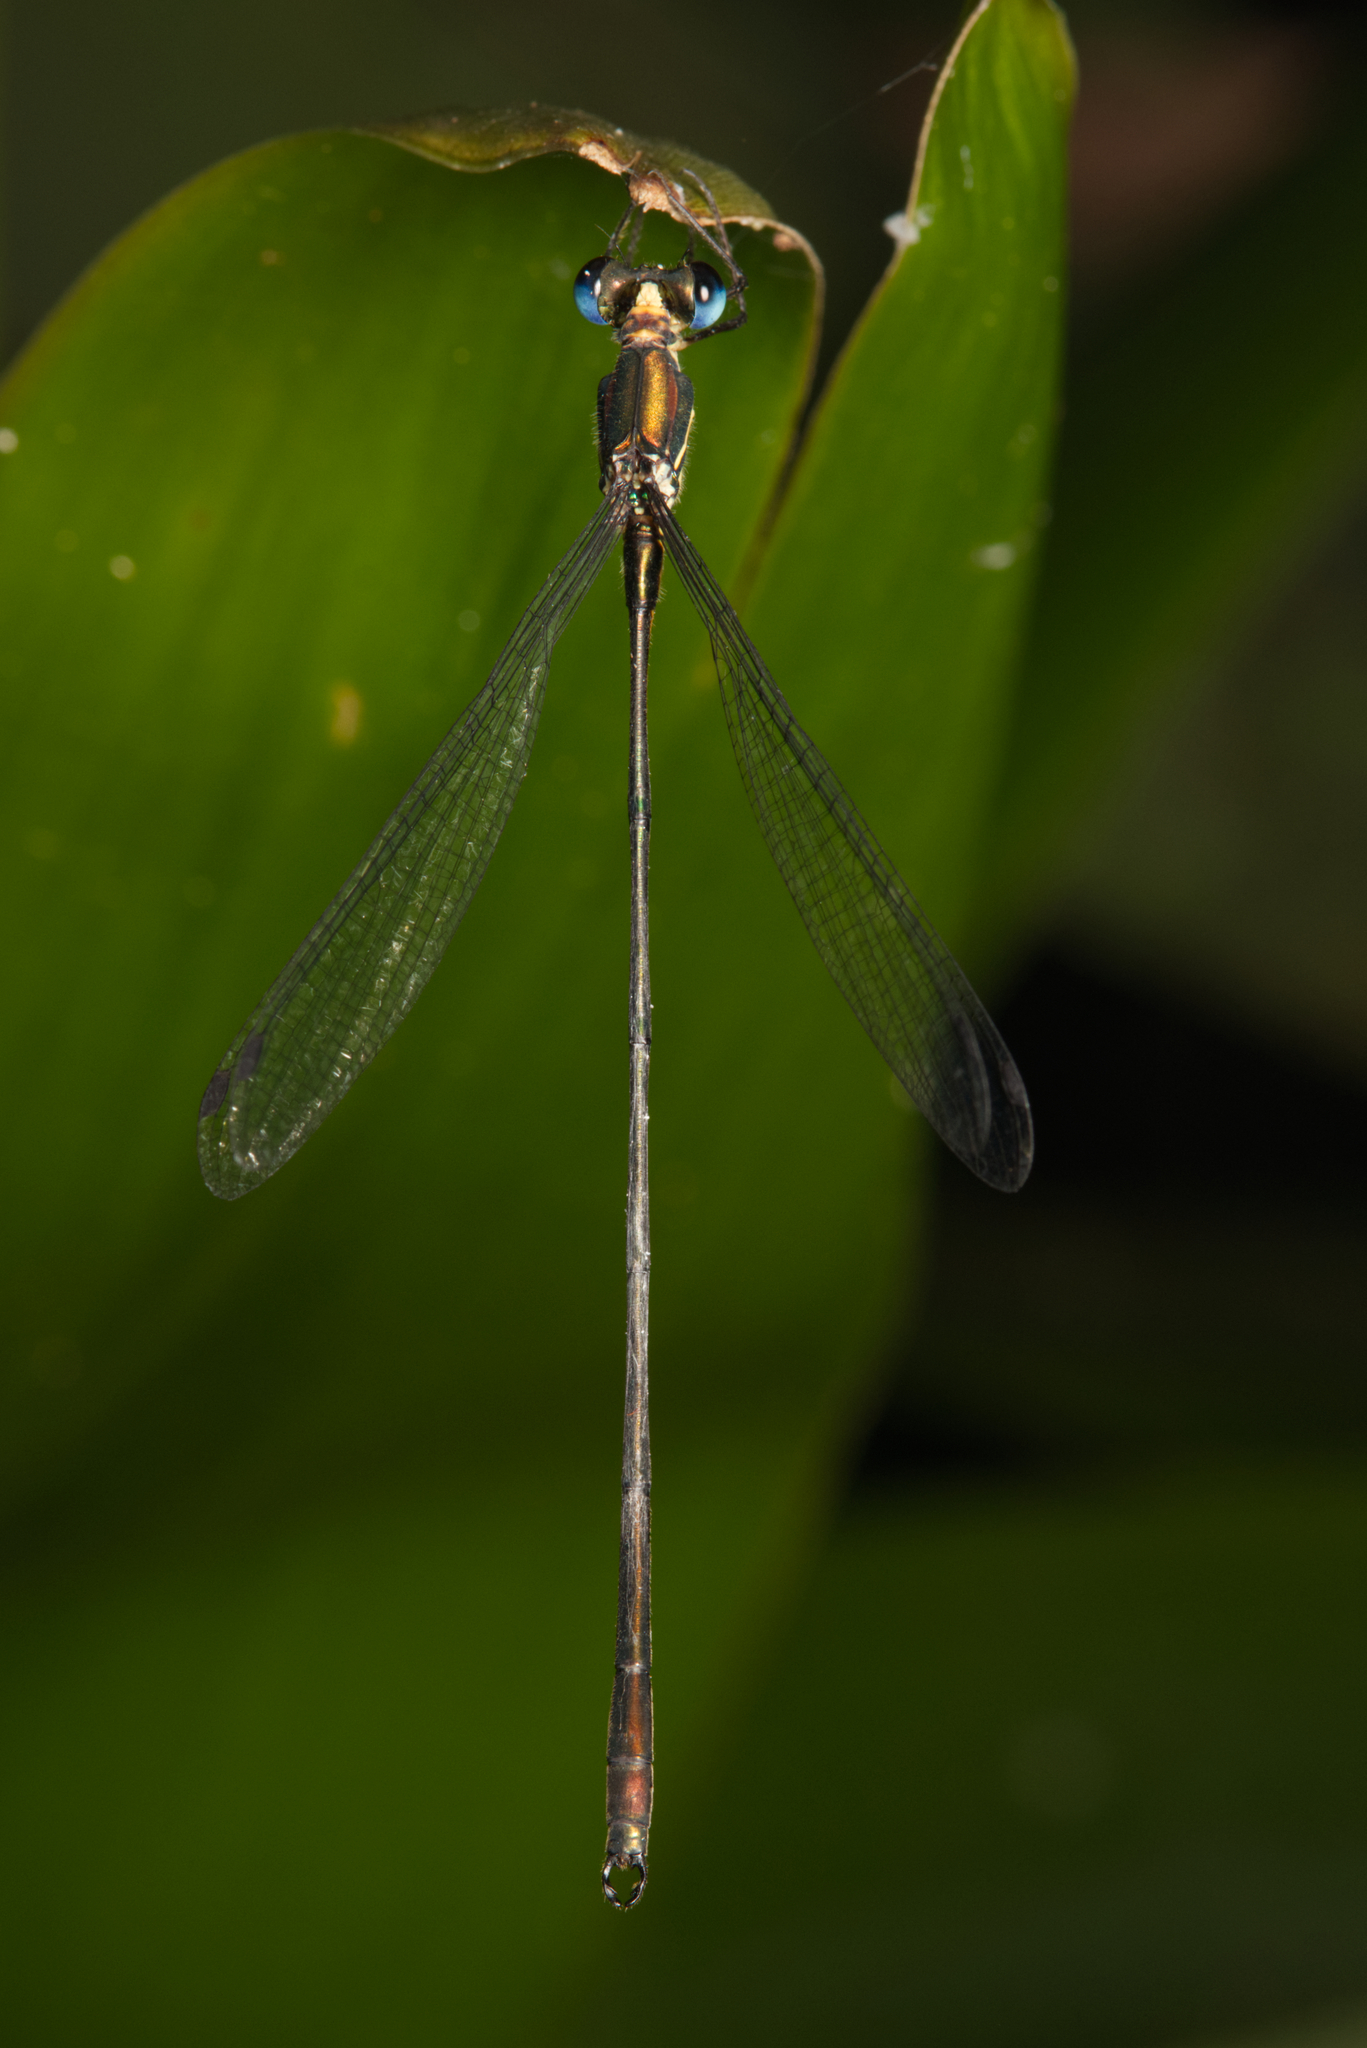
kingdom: Animalia
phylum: Arthropoda
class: Insecta
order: Odonata
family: Synlestidae
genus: Synlestes
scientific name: Synlestes selysi
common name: Forest needle
